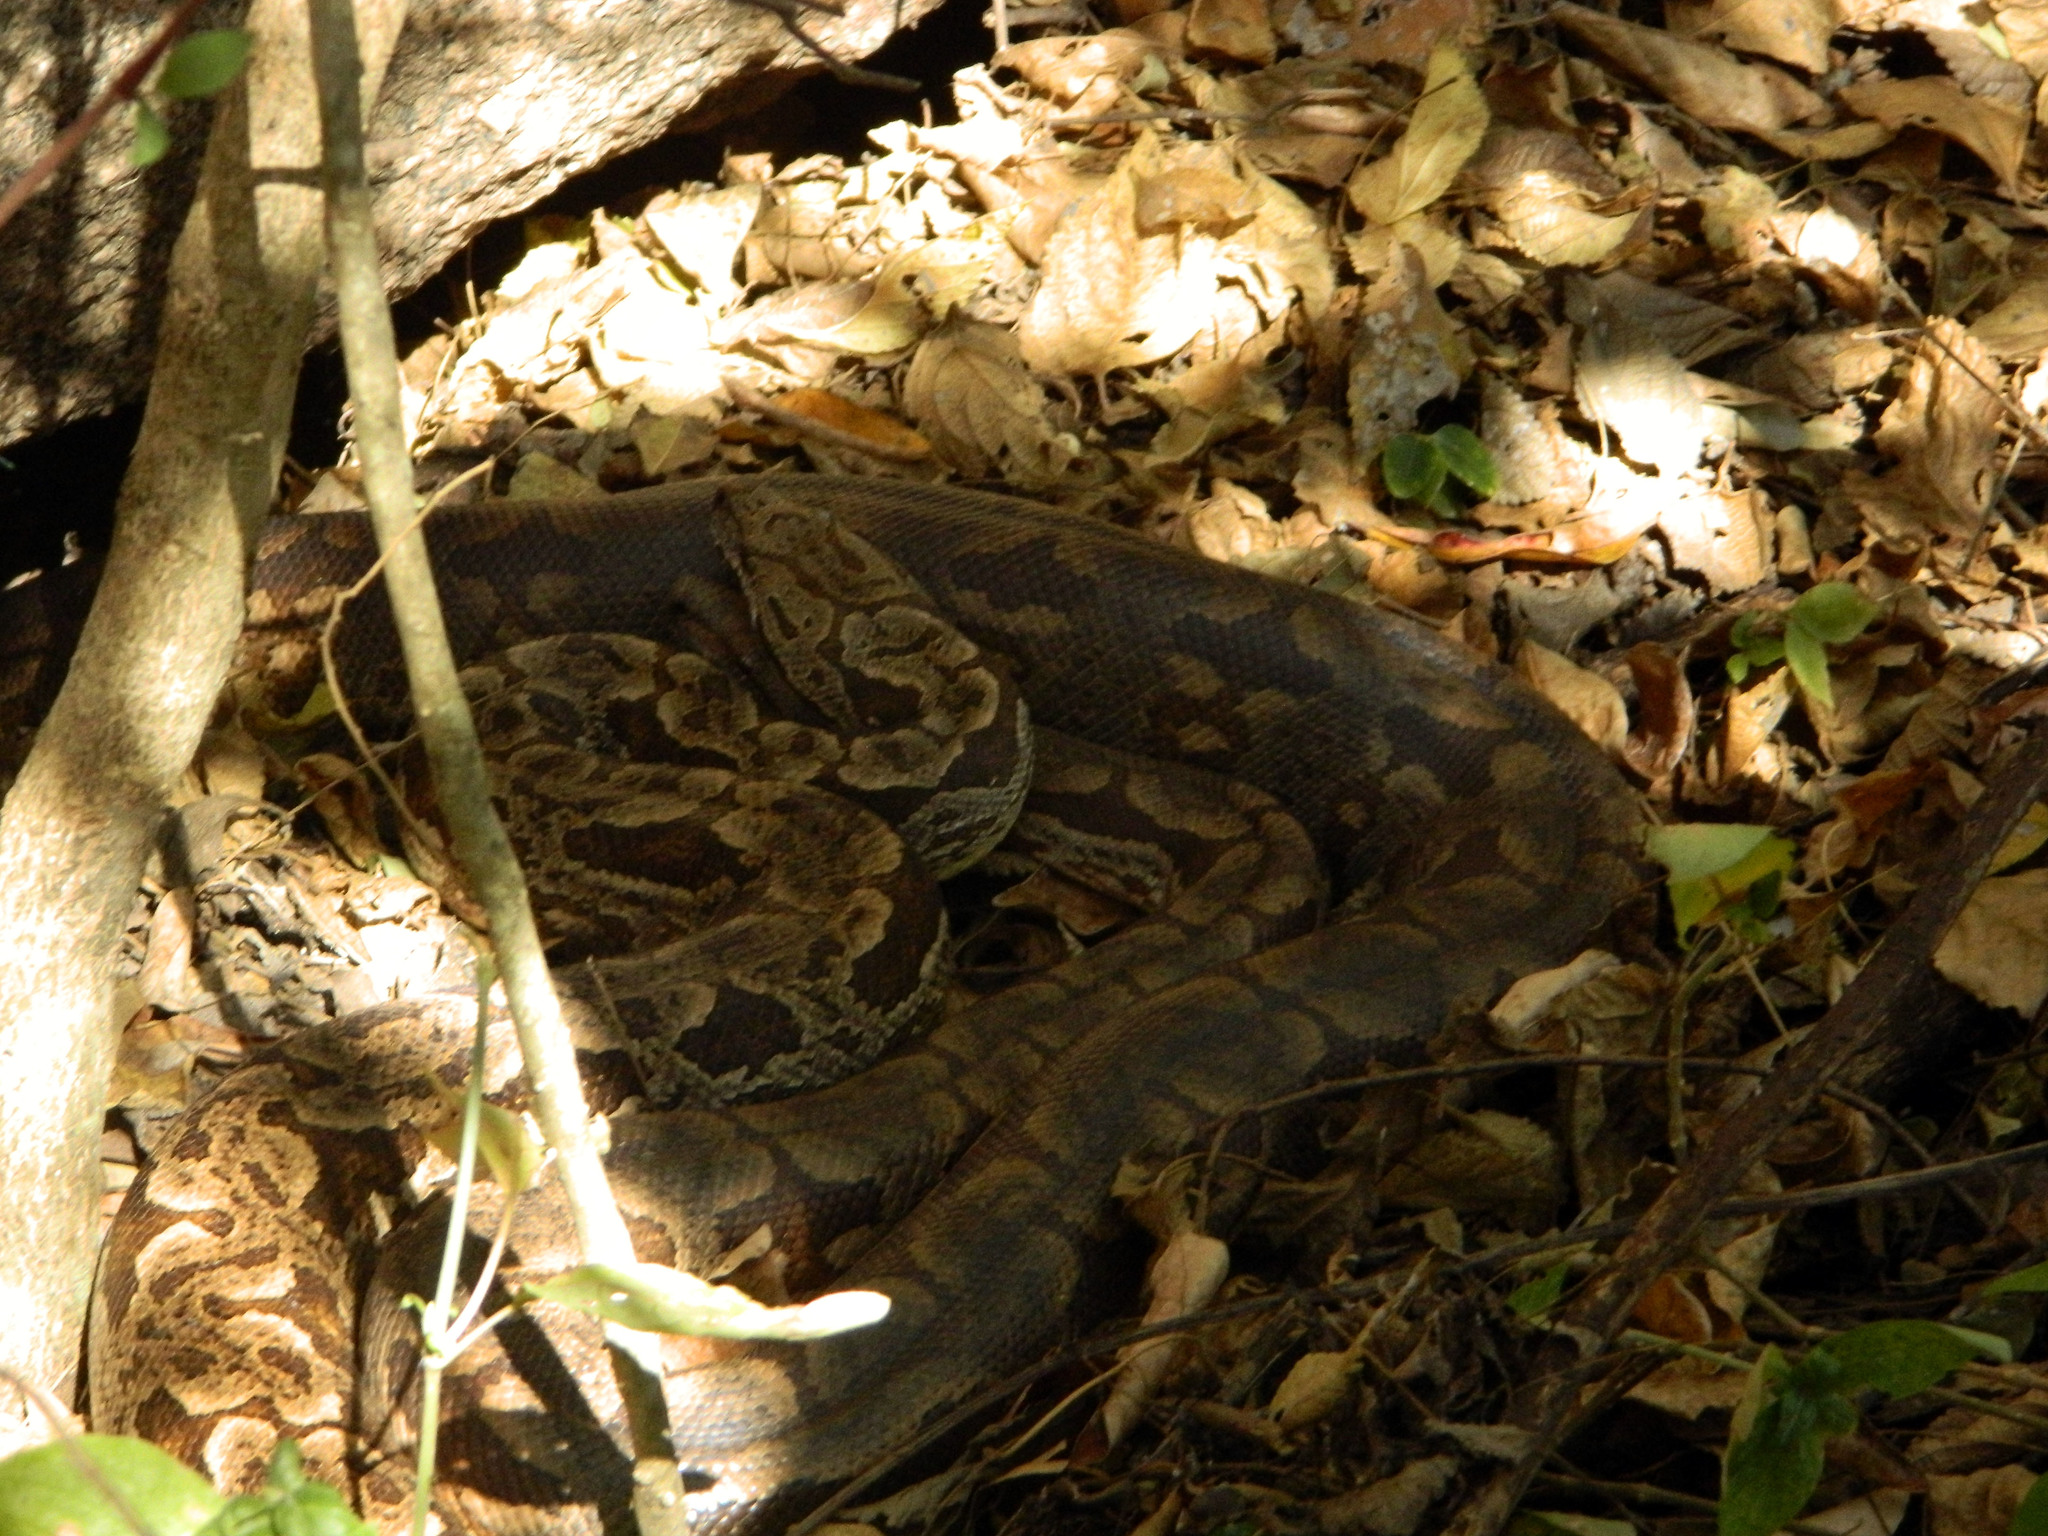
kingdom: Animalia
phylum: Chordata
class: Squamata
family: Boidae
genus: Acrantophis
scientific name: Acrantophis dumerili
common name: Dumeril's boa
